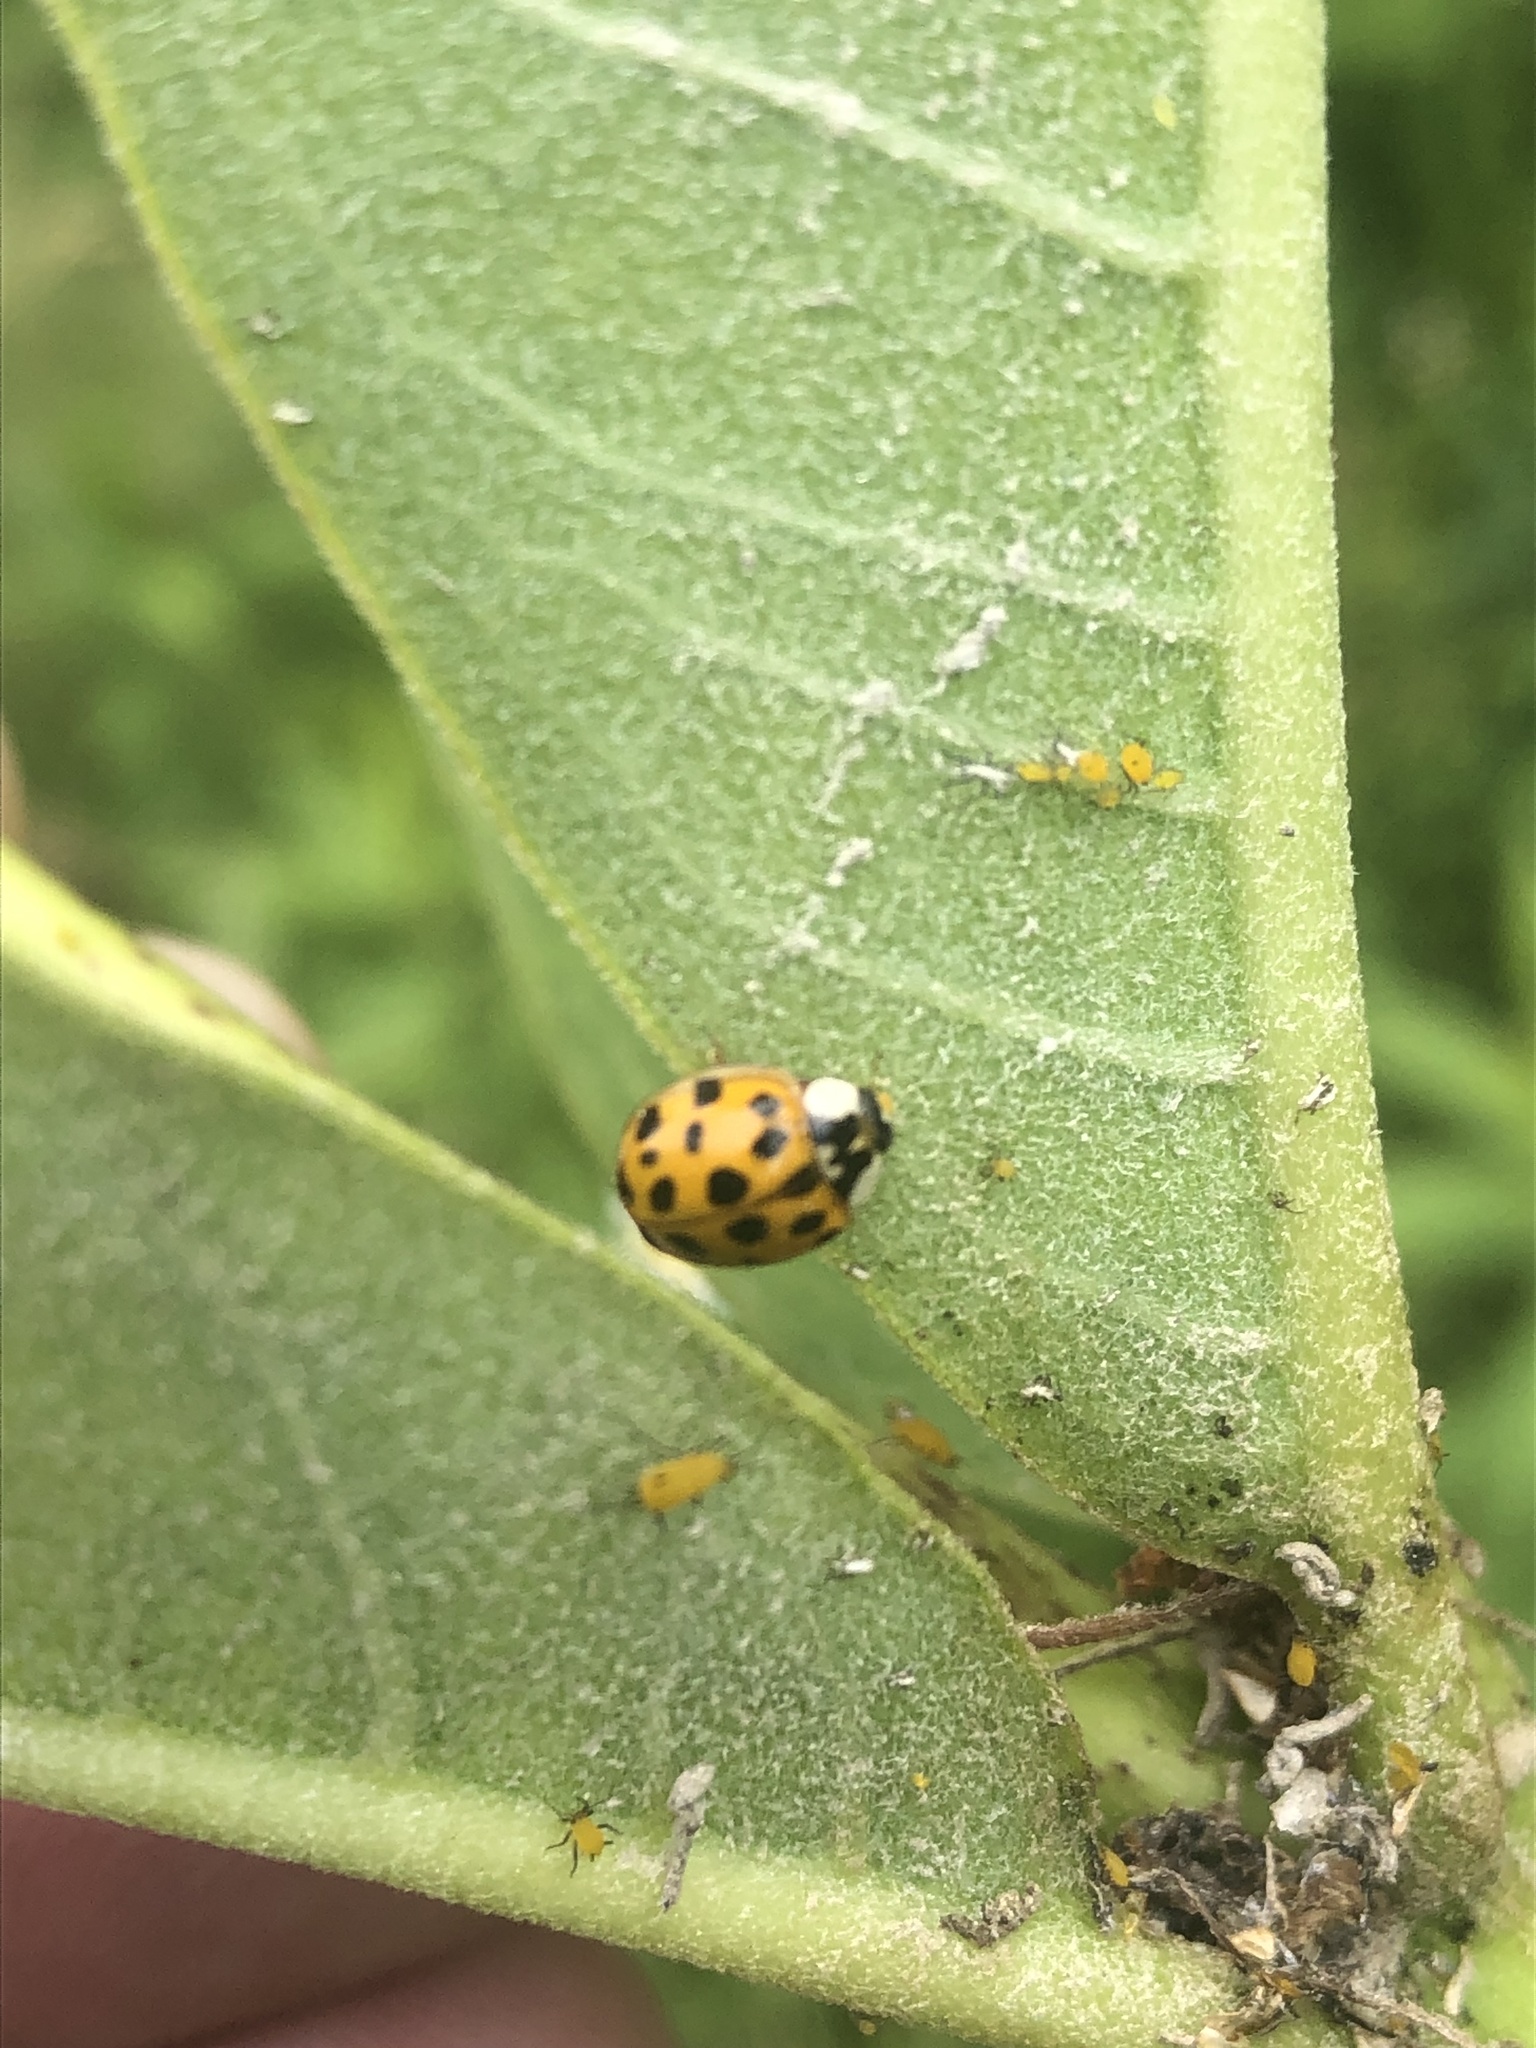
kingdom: Animalia
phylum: Arthropoda
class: Insecta
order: Coleoptera
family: Coccinellidae
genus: Harmonia
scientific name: Harmonia axyridis
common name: Harlequin ladybird
